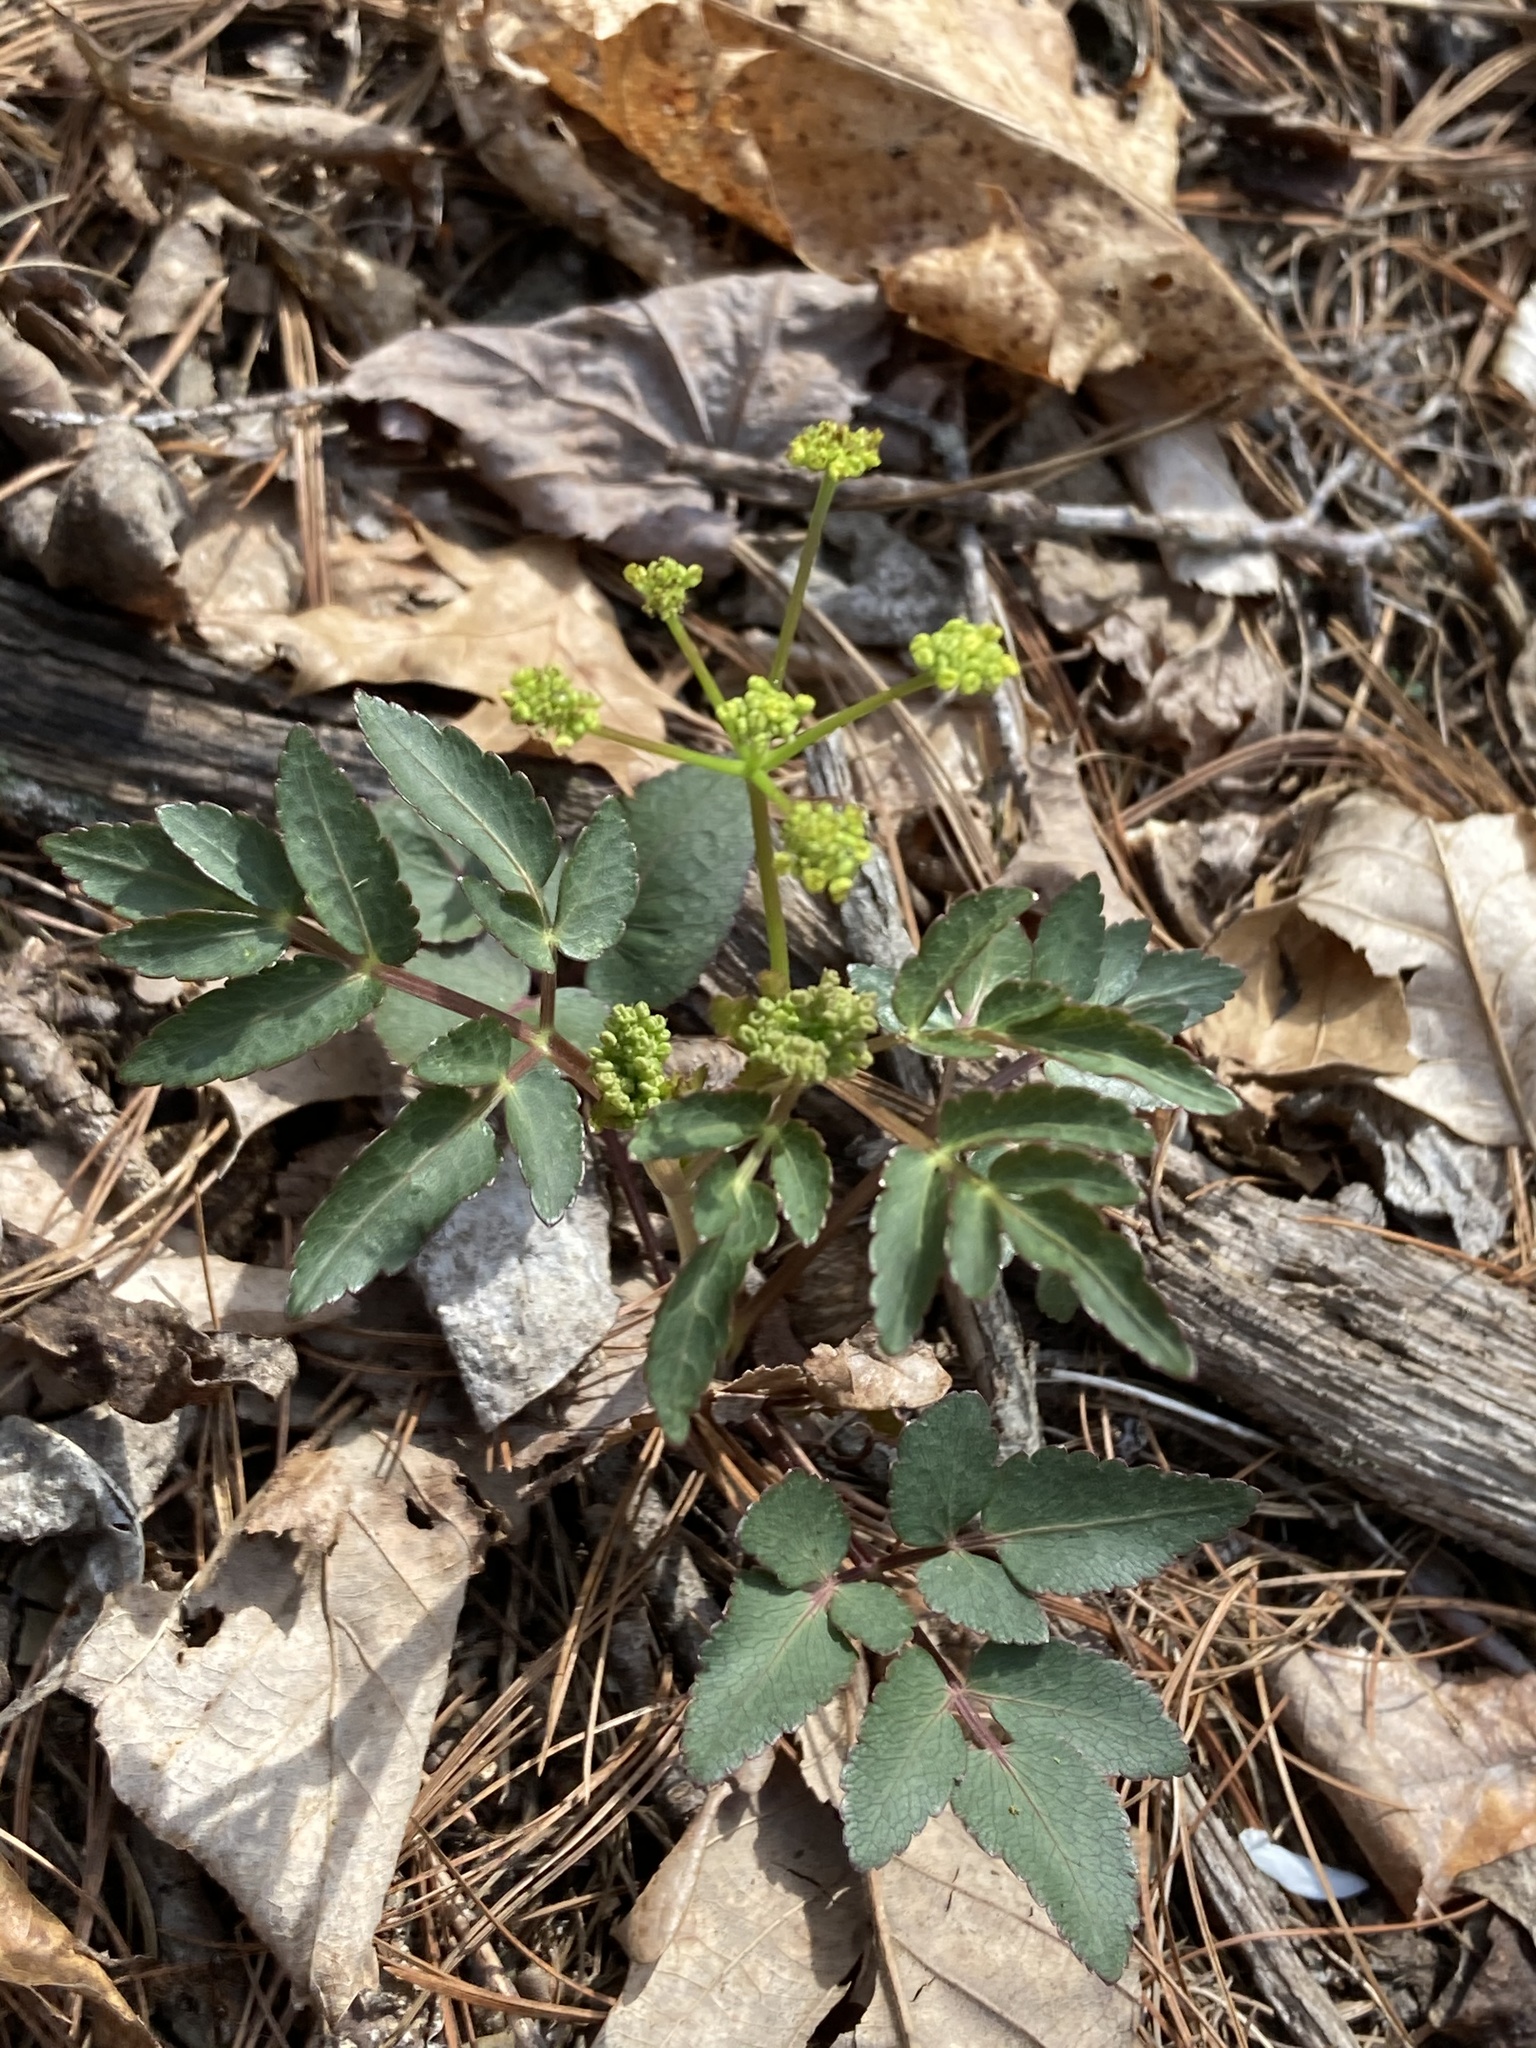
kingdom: Plantae
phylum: Tracheophyta
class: Magnoliopsida
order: Apiales
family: Apiaceae
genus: Zizia
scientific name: Zizia aurea
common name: Golden alexanders
